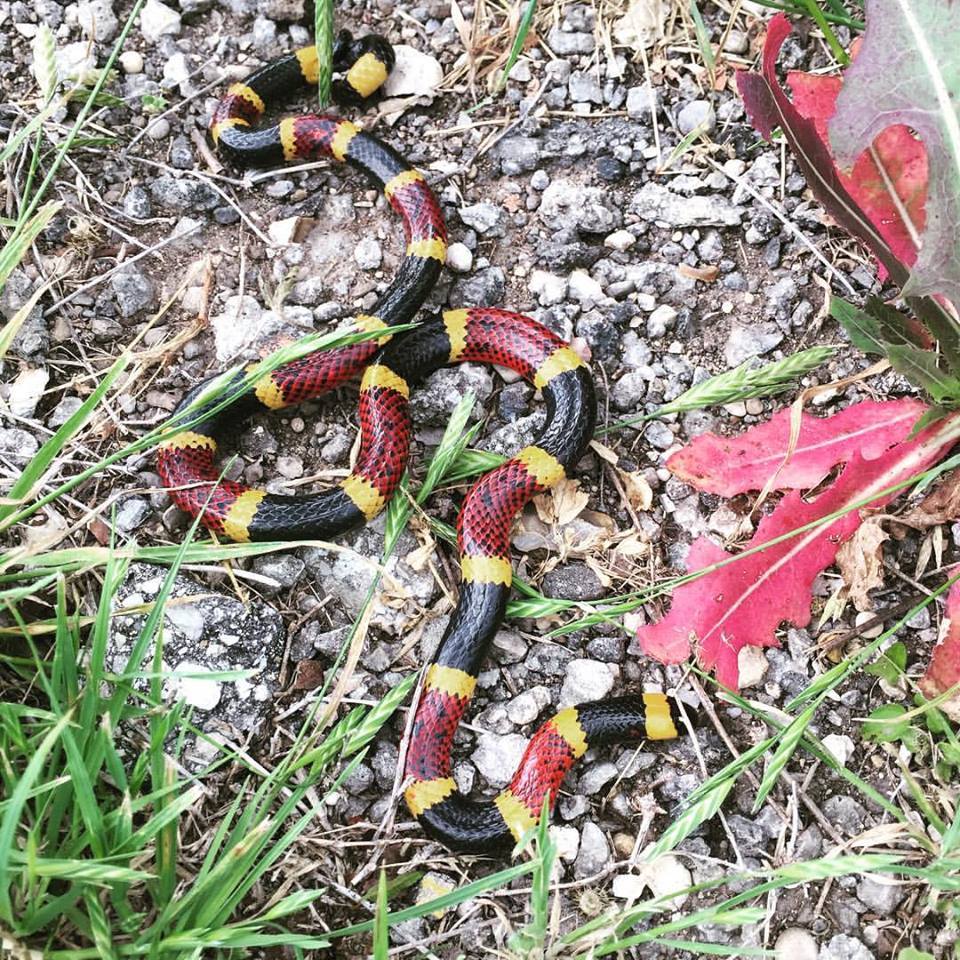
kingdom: Animalia
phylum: Chordata
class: Squamata
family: Elapidae
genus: Micrurus
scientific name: Micrurus tener
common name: Texas coral snake
